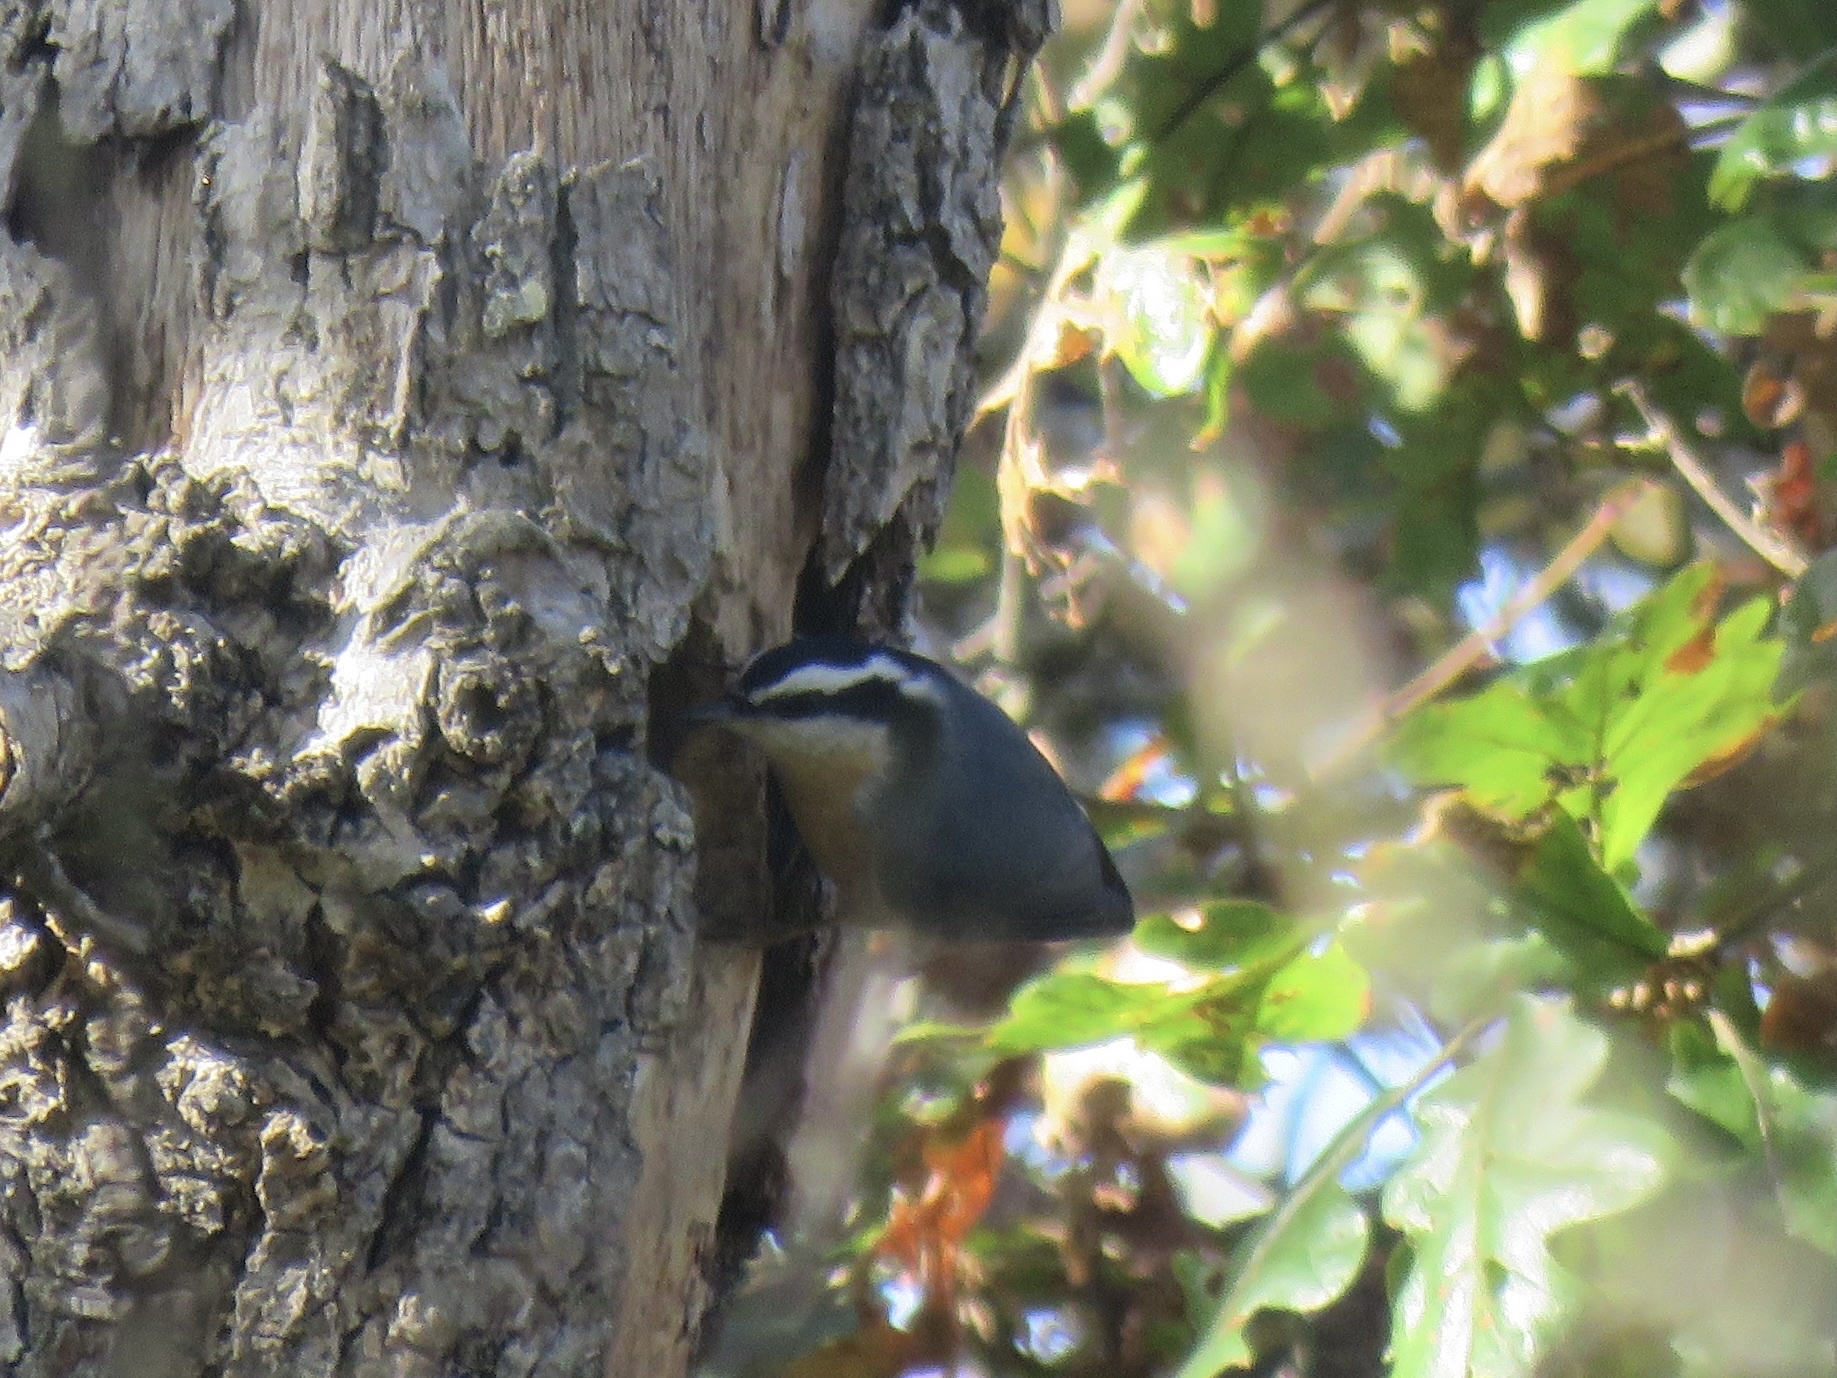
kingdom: Animalia
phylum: Chordata
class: Aves
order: Passeriformes
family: Sittidae
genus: Sitta
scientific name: Sitta canadensis
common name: Red-breasted nuthatch
